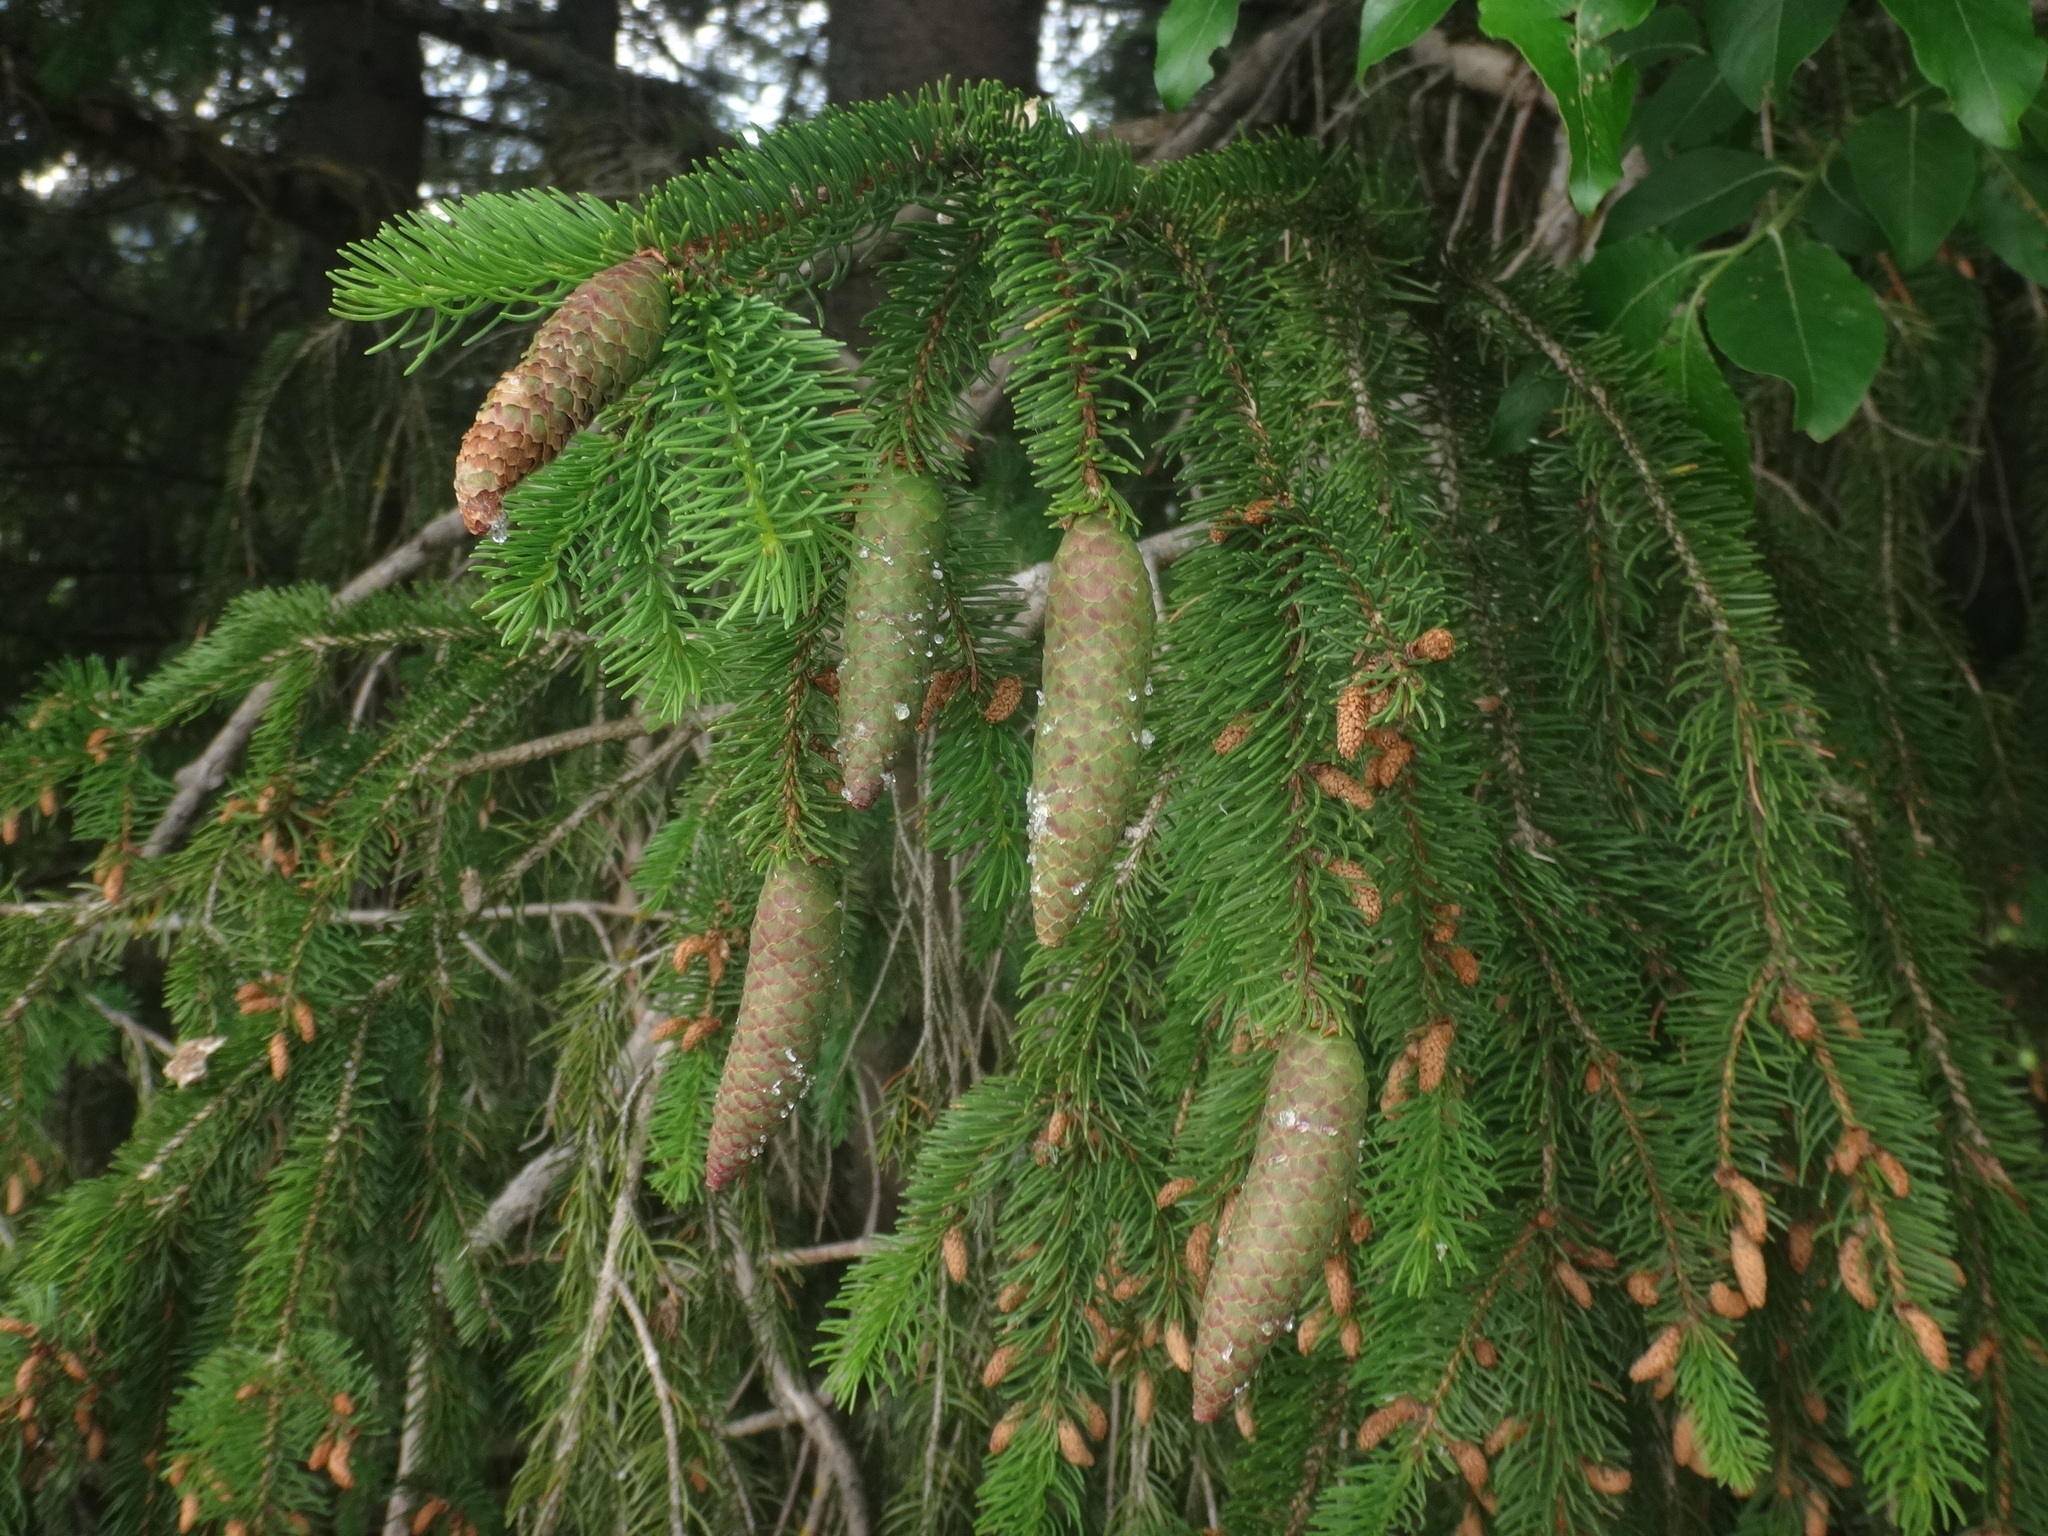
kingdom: Plantae
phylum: Tracheophyta
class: Pinopsida
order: Pinales
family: Pinaceae
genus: Picea
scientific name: Picea abies
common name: Norway spruce
